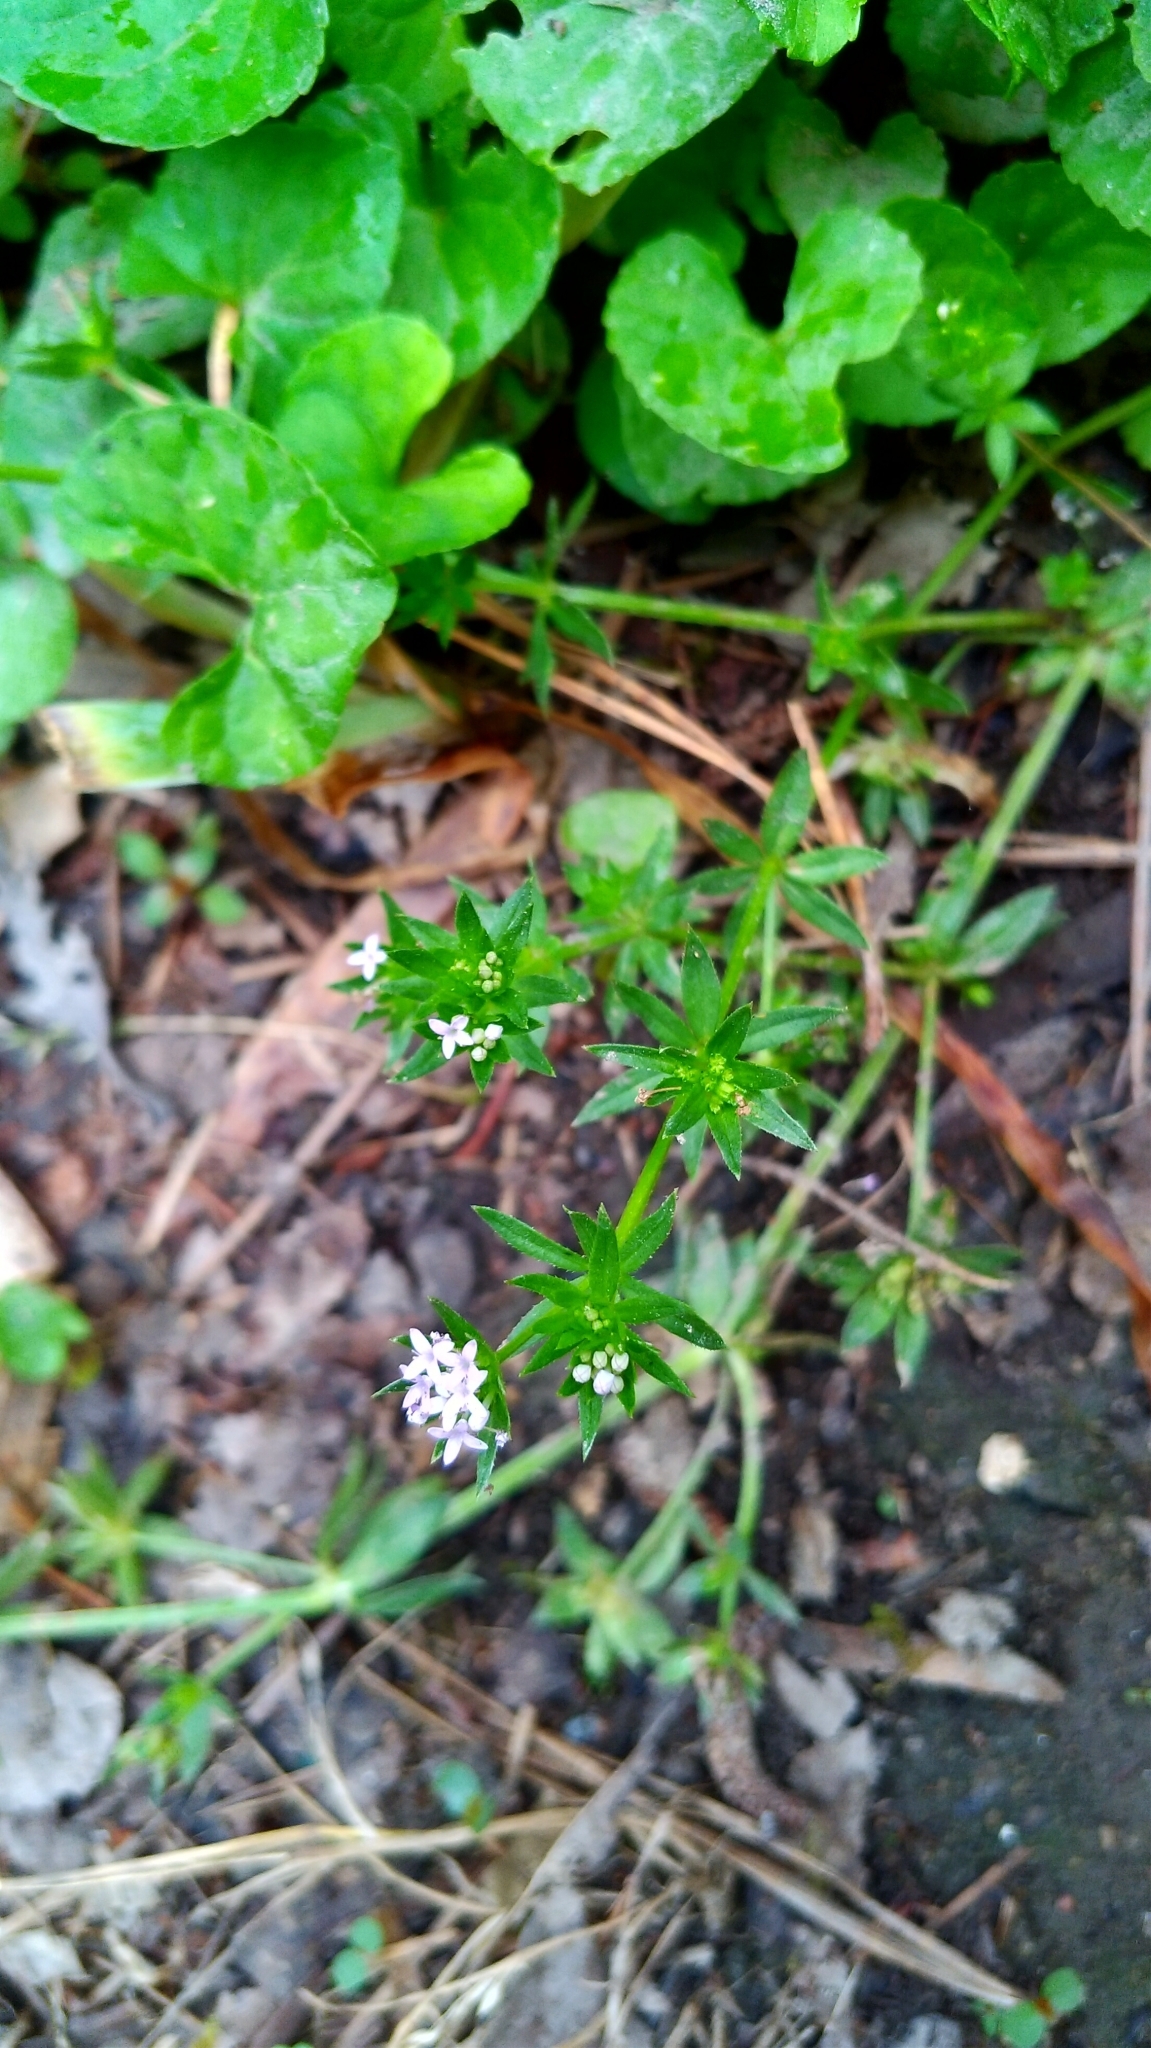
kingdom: Plantae
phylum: Tracheophyta
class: Magnoliopsida
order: Gentianales
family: Rubiaceae
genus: Sherardia
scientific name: Sherardia arvensis
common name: Field madder
